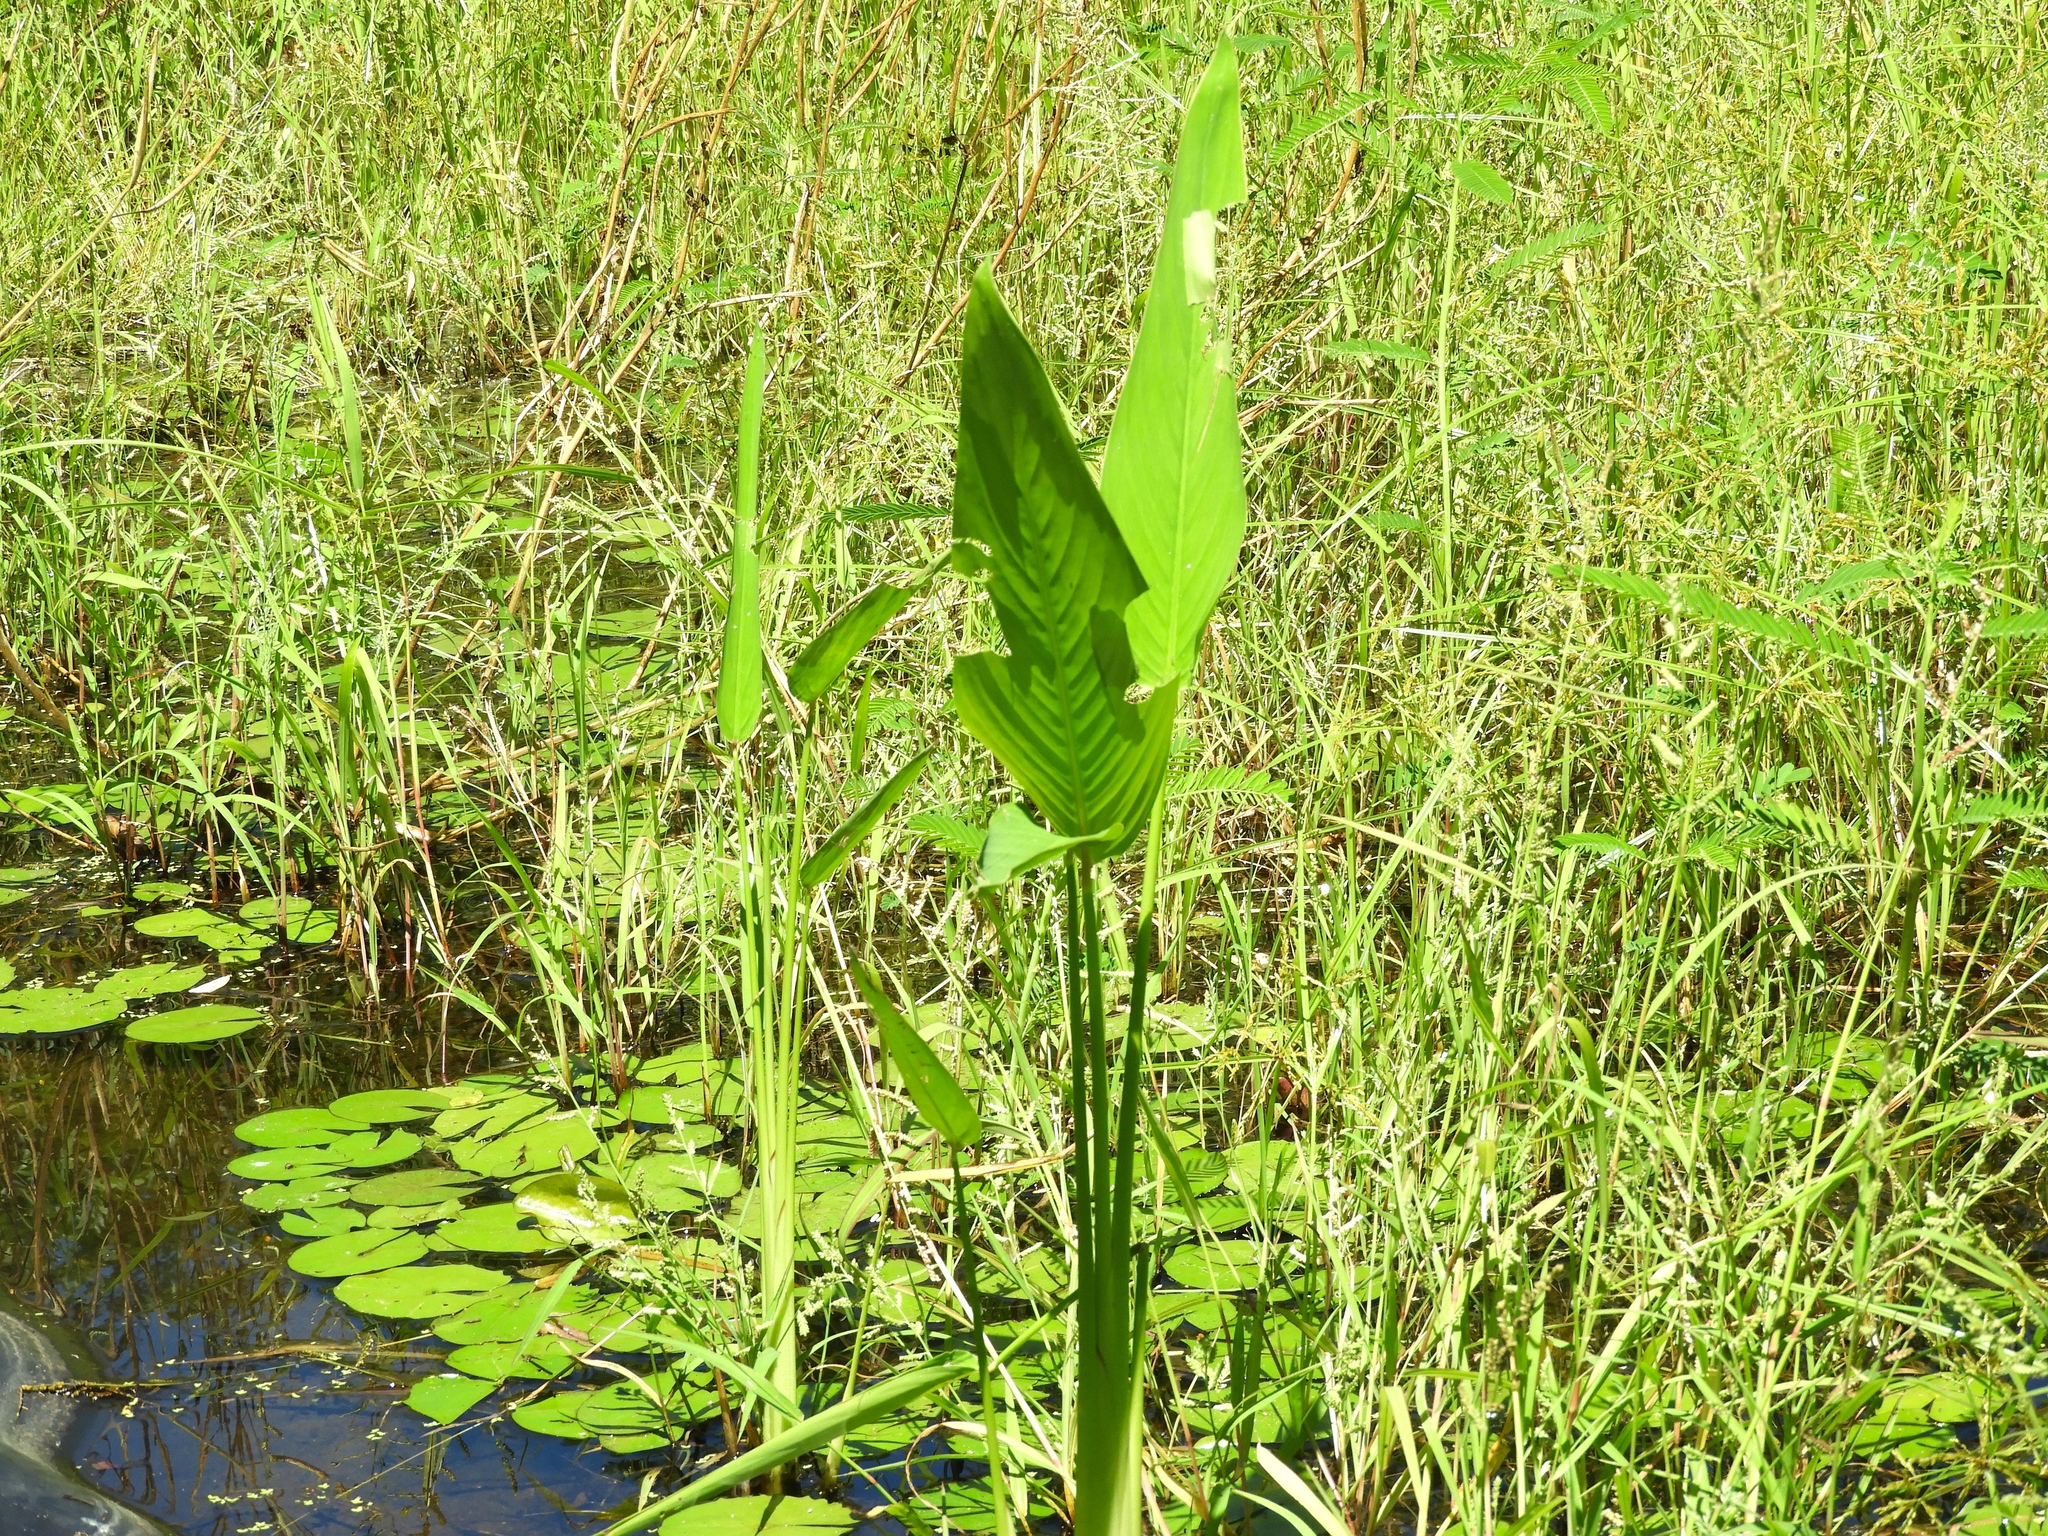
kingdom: Plantae
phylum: Tracheophyta
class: Liliopsida
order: Zingiberales
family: Marantaceae
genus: Thalia
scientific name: Thalia geniculata
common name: Arrowroot
